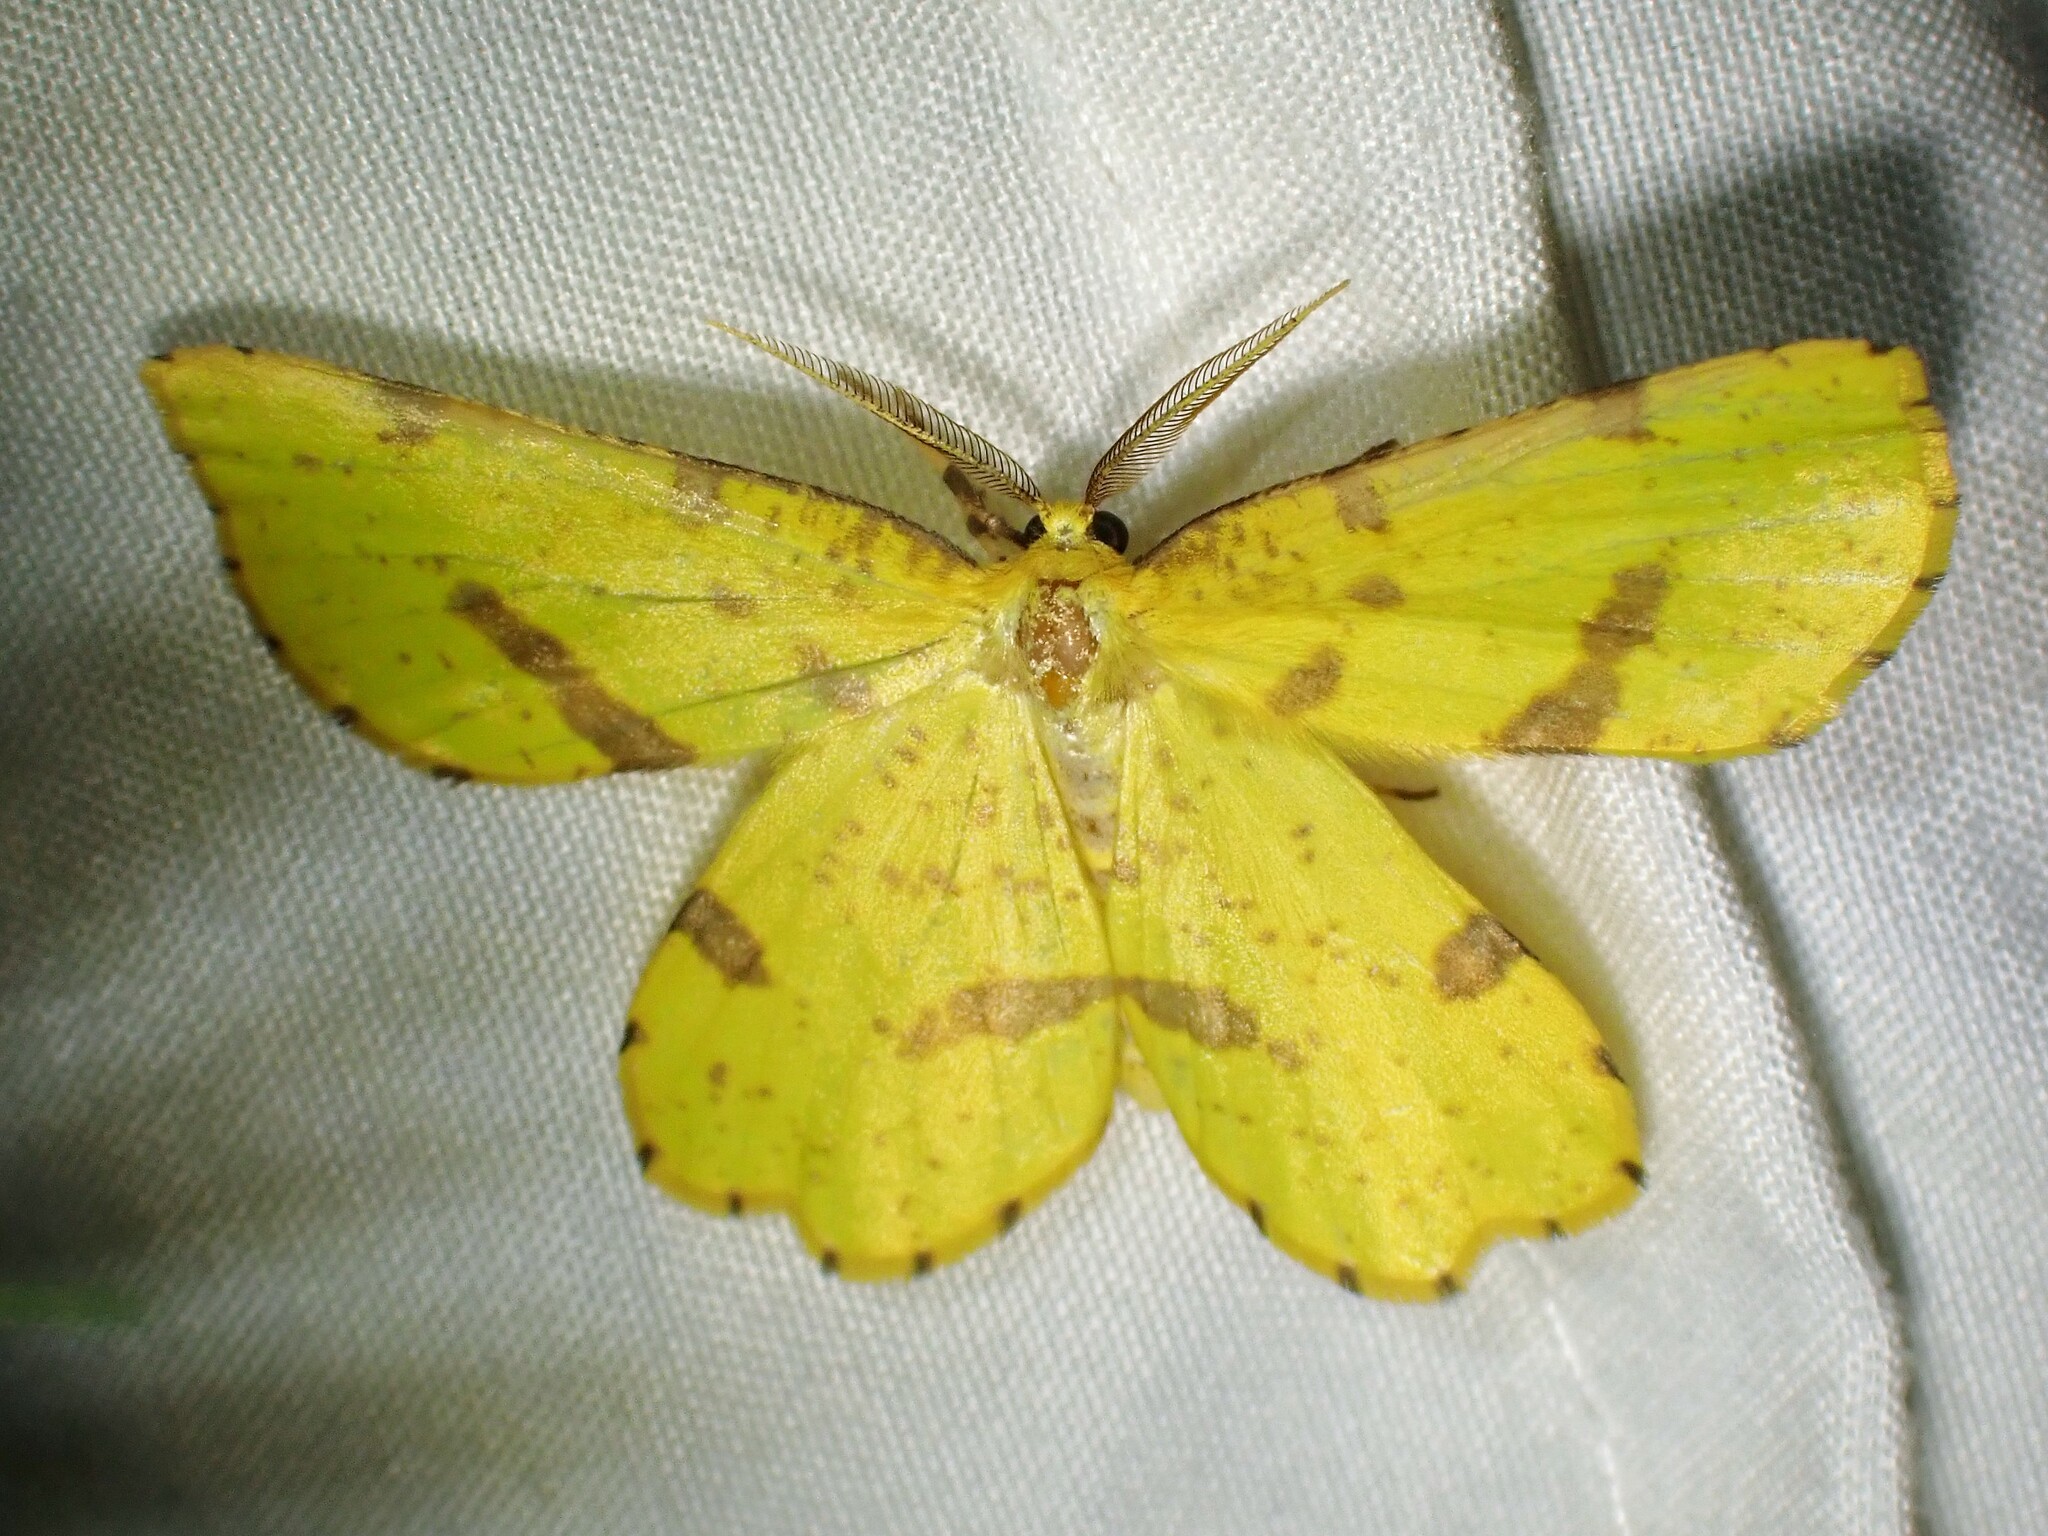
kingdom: Animalia
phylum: Arthropoda
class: Insecta
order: Lepidoptera
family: Geometridae
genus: Xanthotype
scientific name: Xanthotype
